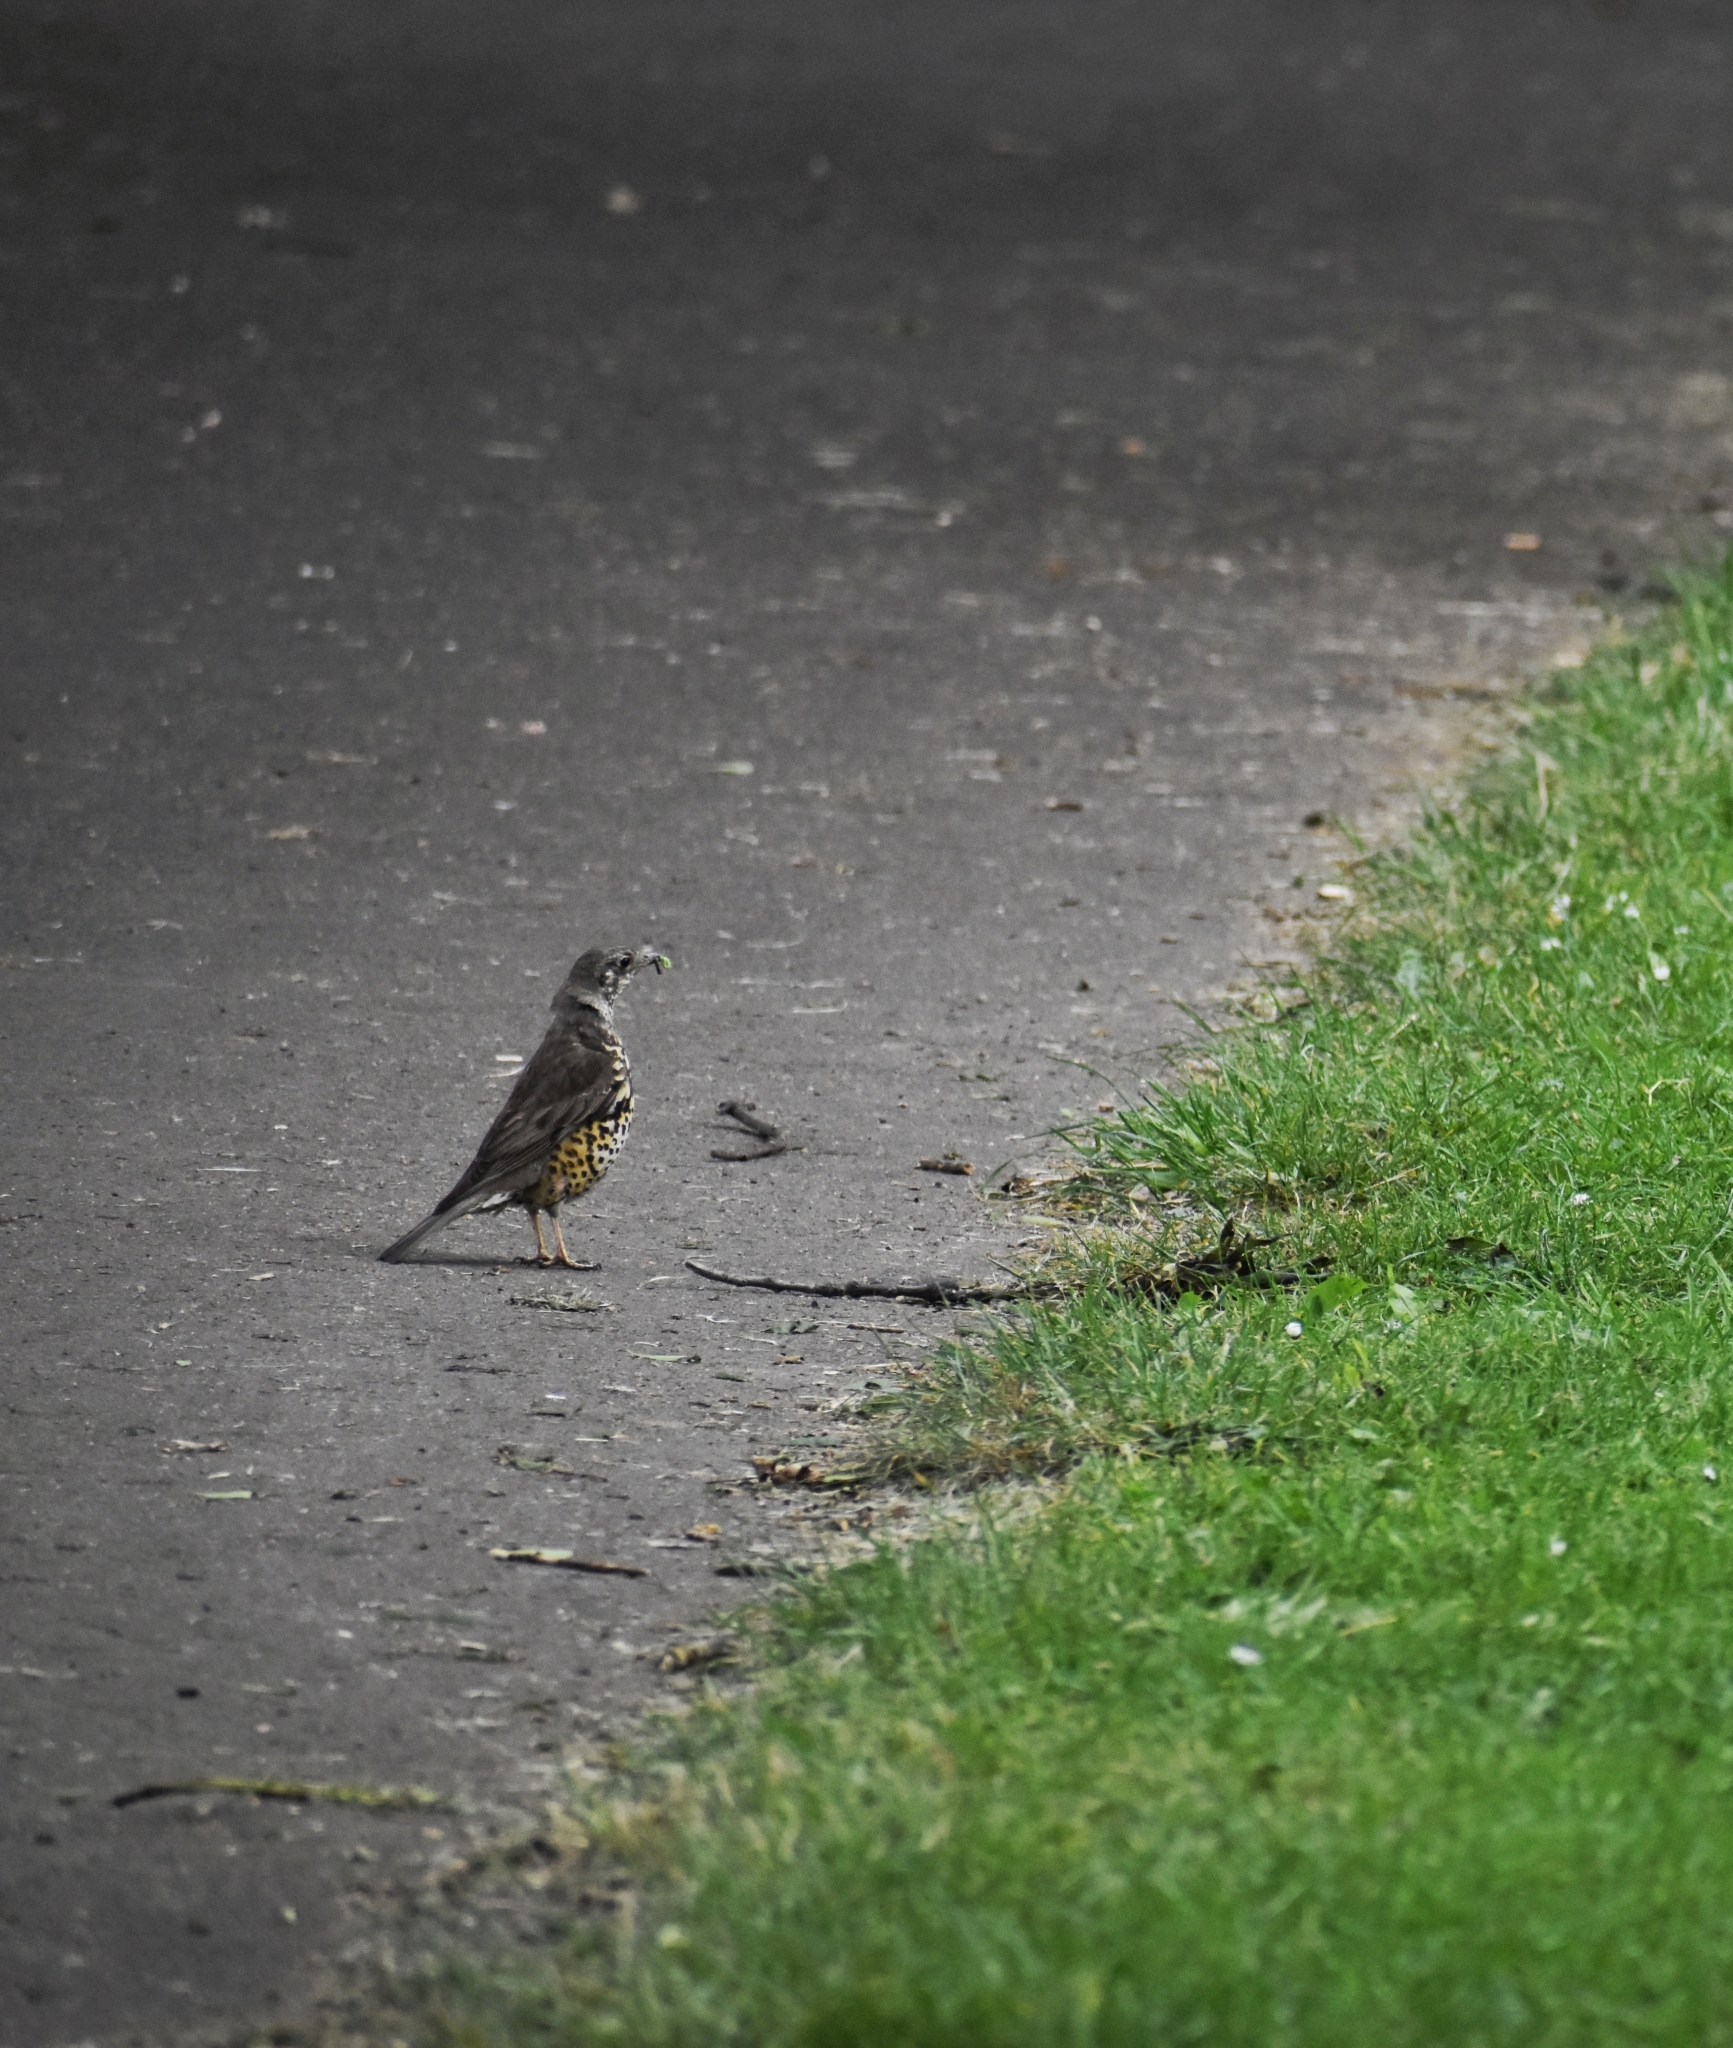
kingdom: Animalia
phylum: Chordata
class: Aves
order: Passeriformes
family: Turdidae
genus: Turdus
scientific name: Turdus viscivorus
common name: Mistle thrush
